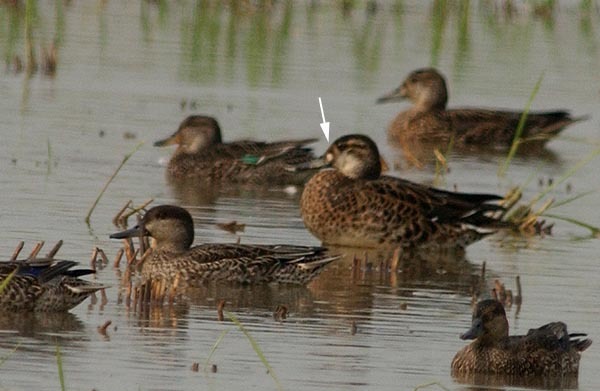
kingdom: Animalia
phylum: Chordata
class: Aves
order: Anseriformes
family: Anatidae
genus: Sibirionetta
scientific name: Sibirionetta formosa
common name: Baikal teal
